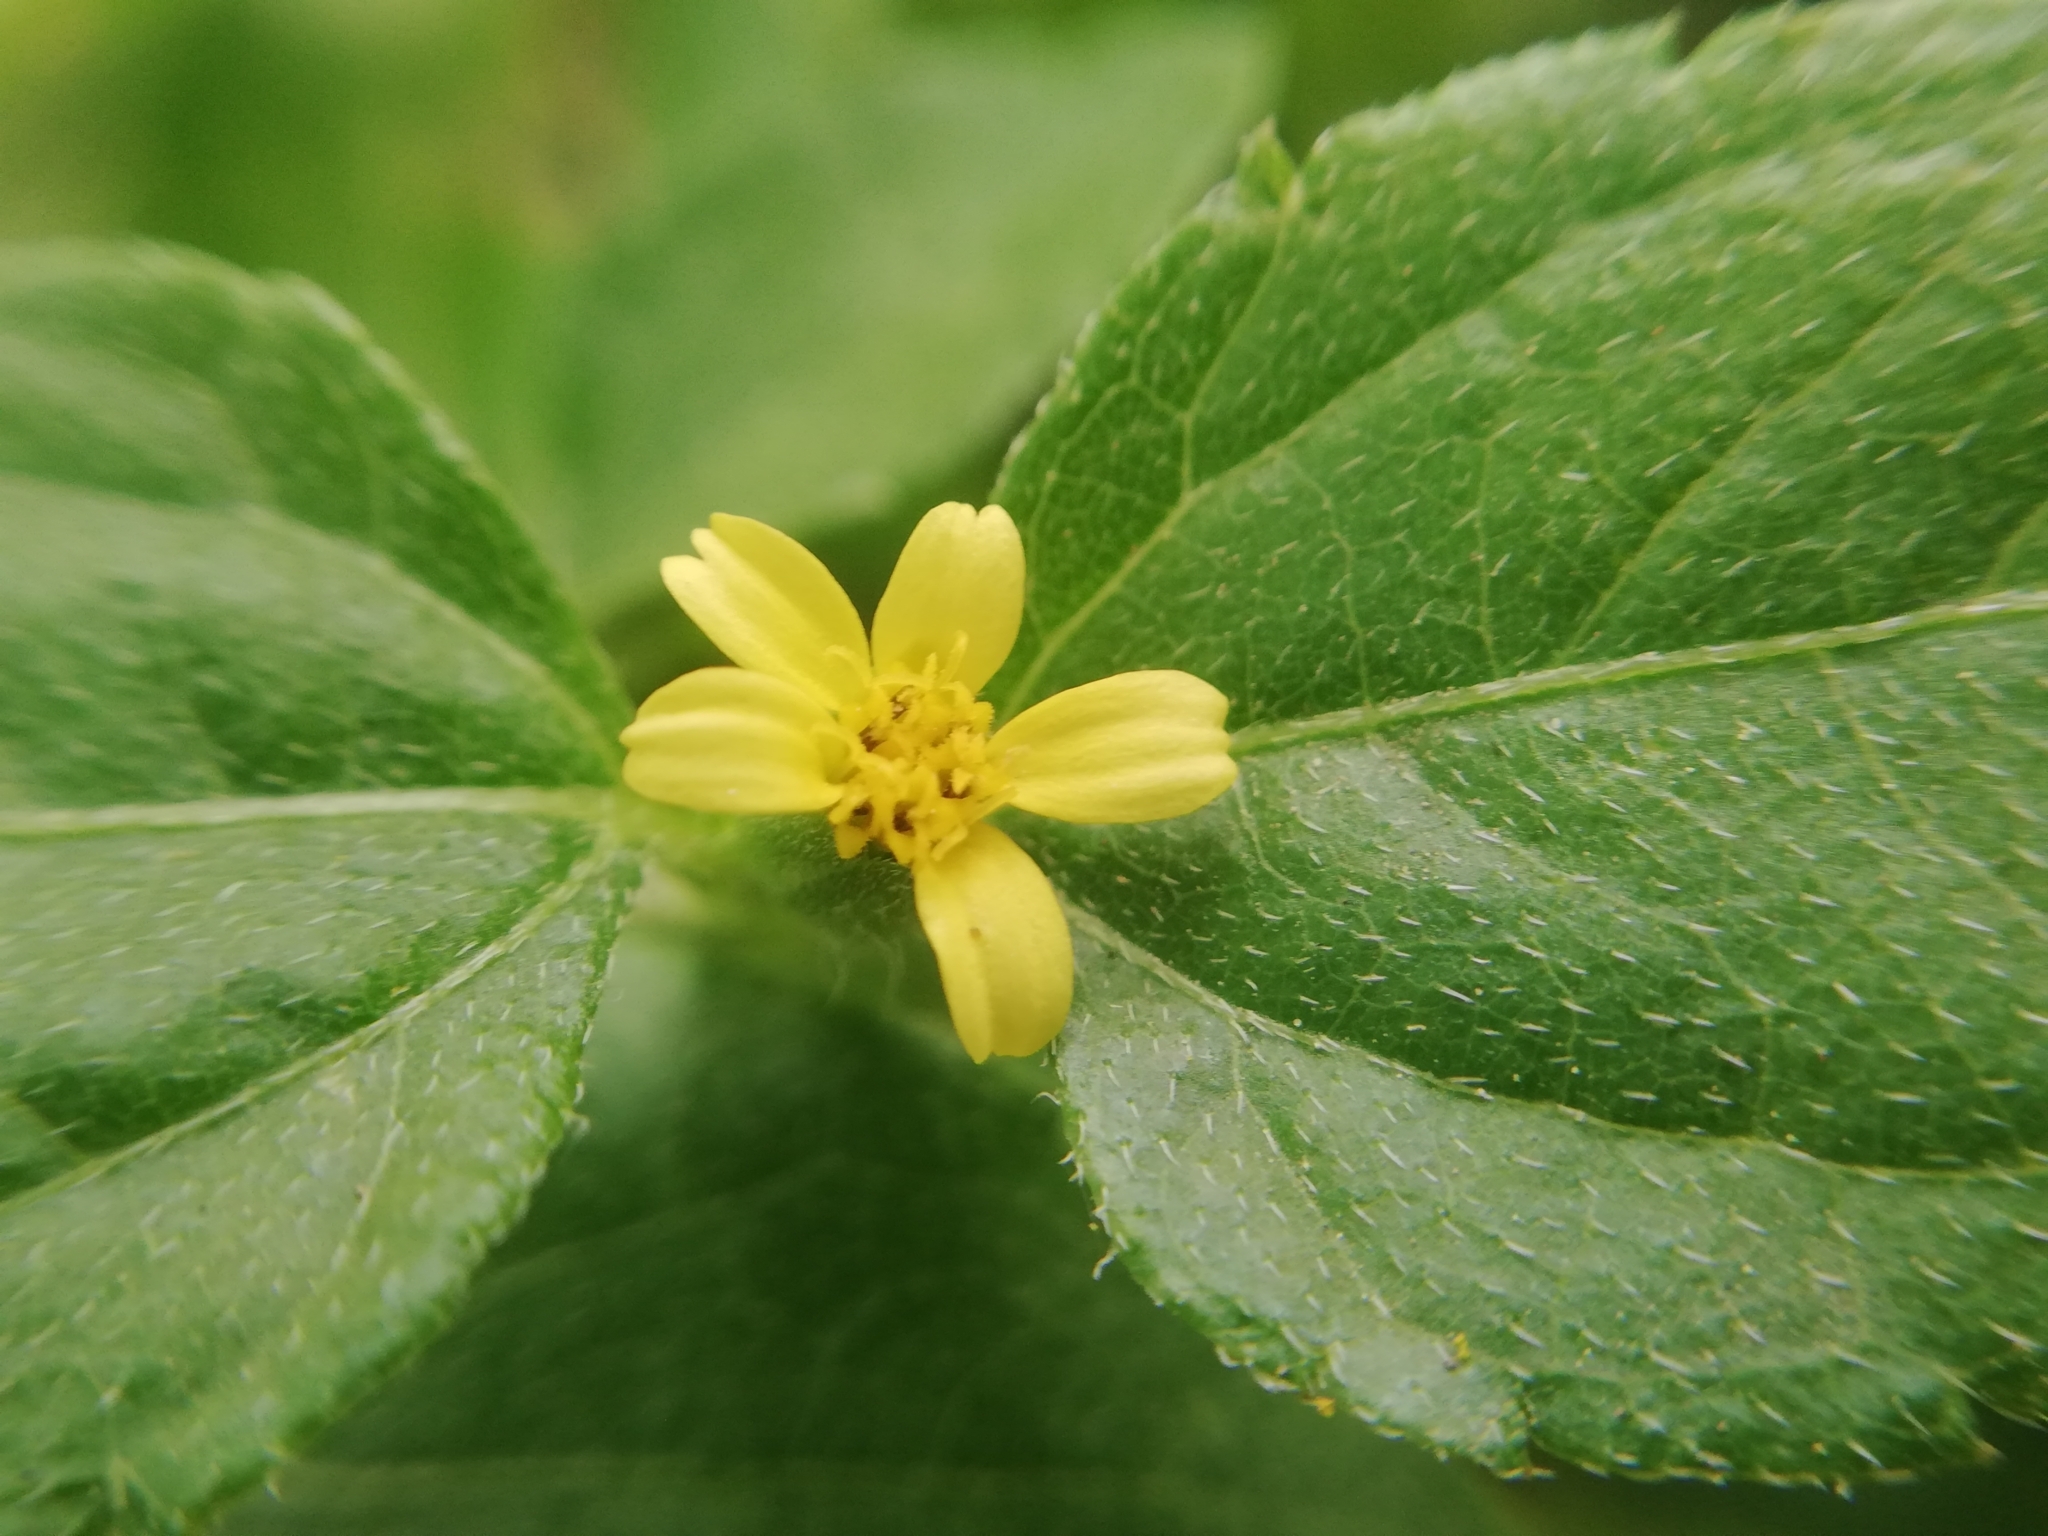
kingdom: Plantae
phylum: Tracheophyta
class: Magnoliopsida
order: Asterales
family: Asteraceae
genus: Calyptocarpus
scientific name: Calyptocarpus vialis
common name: Straggler daisy
